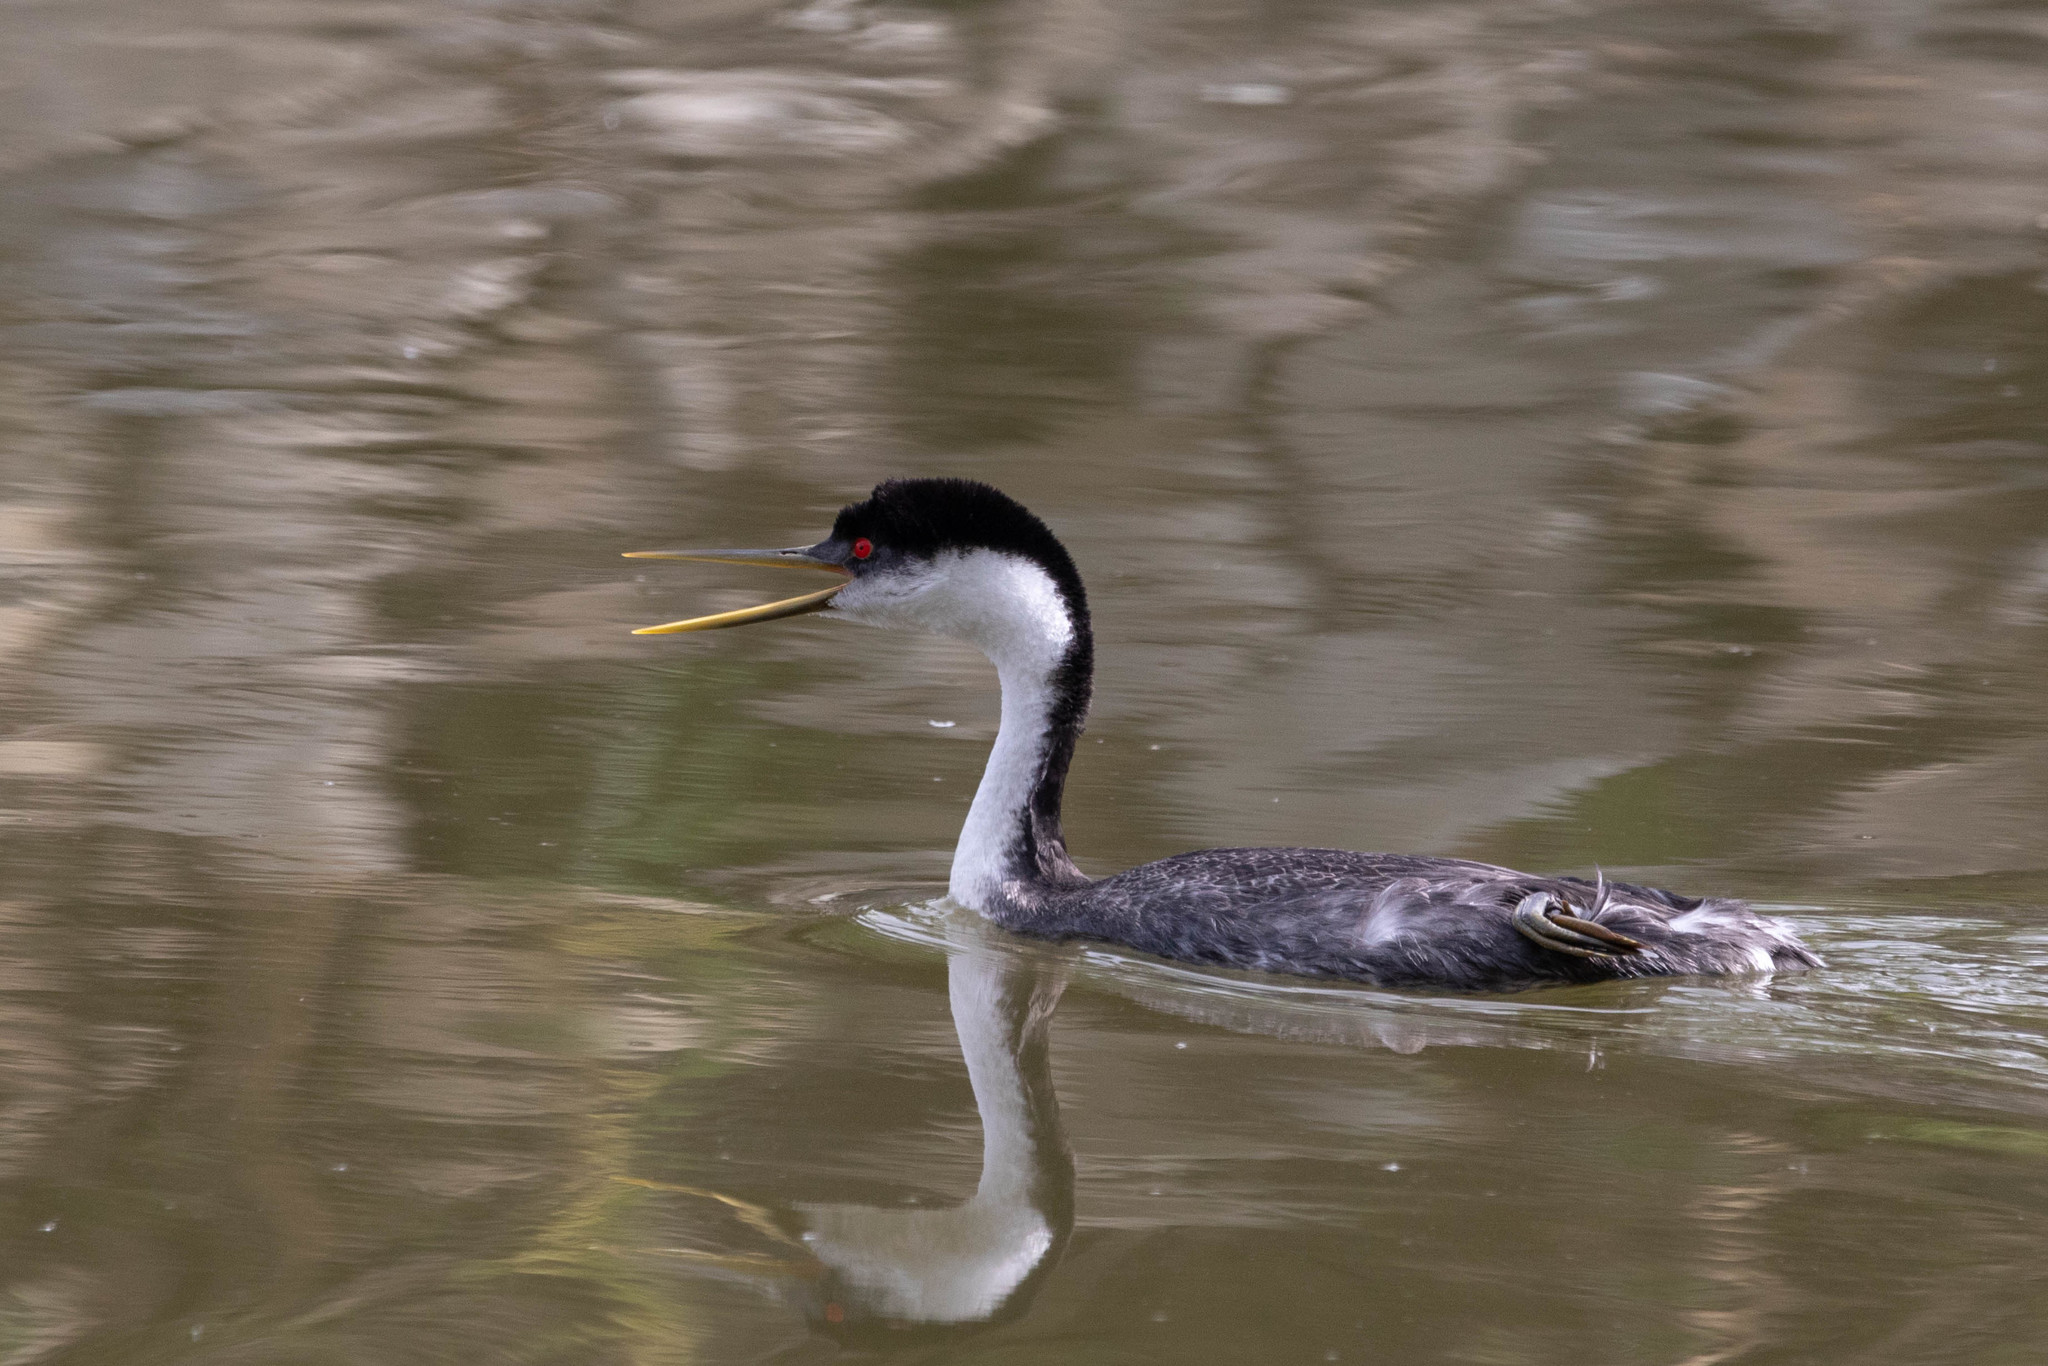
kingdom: Animalia
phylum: Chordata
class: Aves
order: Podicipediformes
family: Podicipedidae
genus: Aechmophorus
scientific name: Aechmophorus occidentalis
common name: Western grebe
